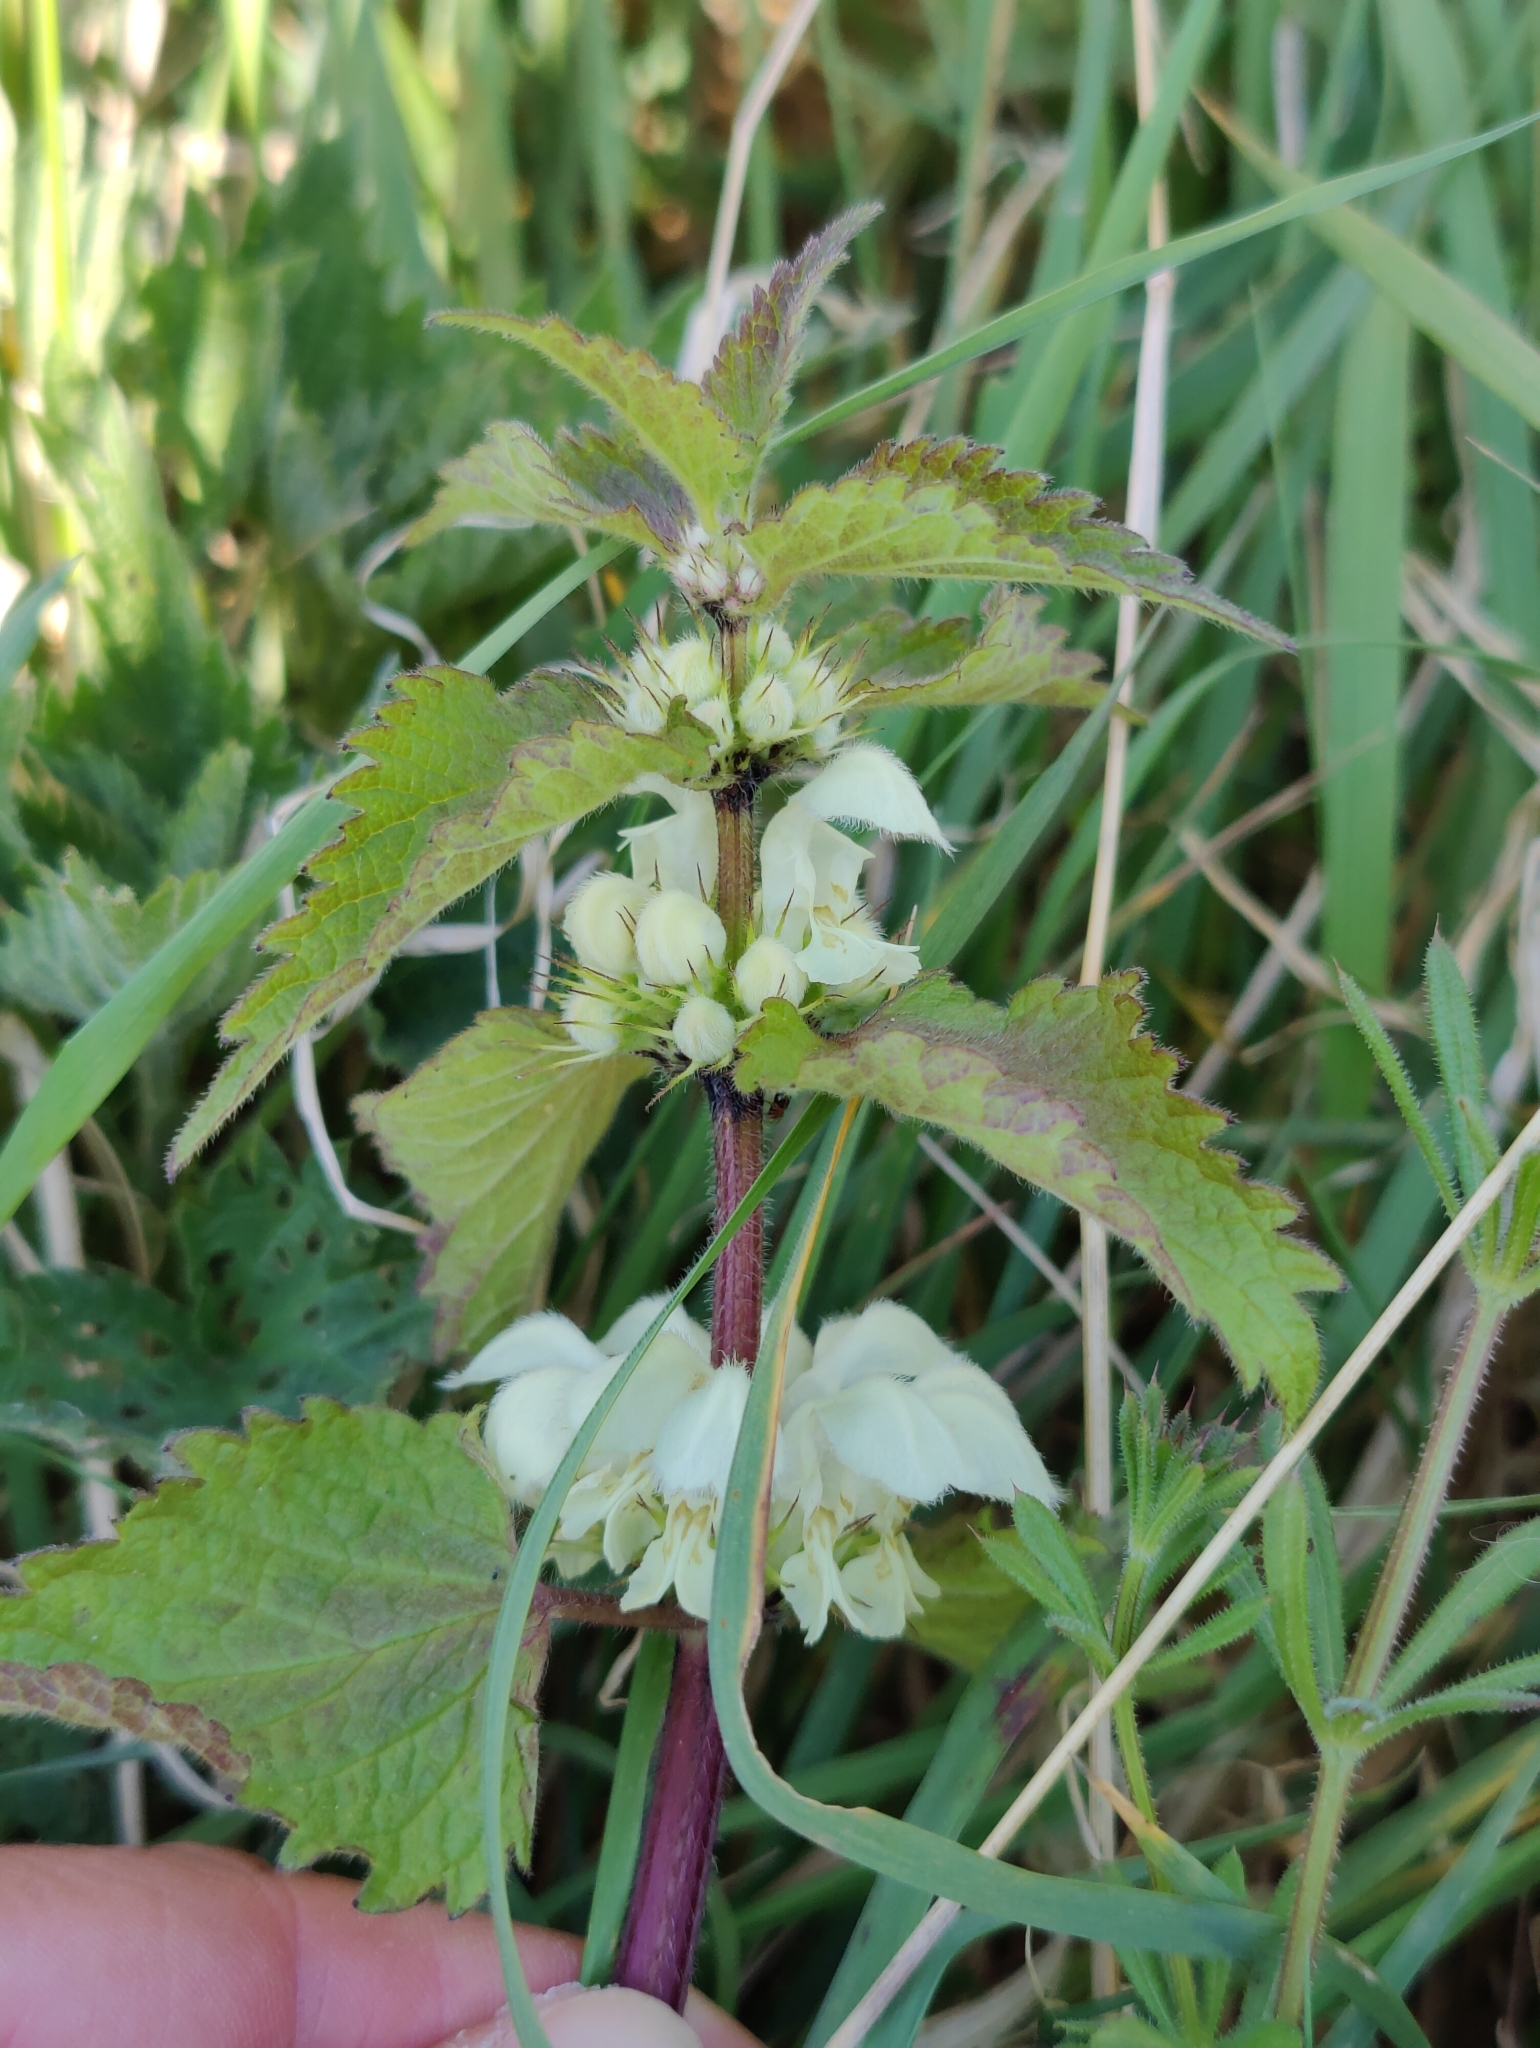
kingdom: Plantae
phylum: Tracheophyta
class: Magnoliopsida
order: Lamiales
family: Lamiaceae
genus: Lamium
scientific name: Lamium album
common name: White dead-nettle
